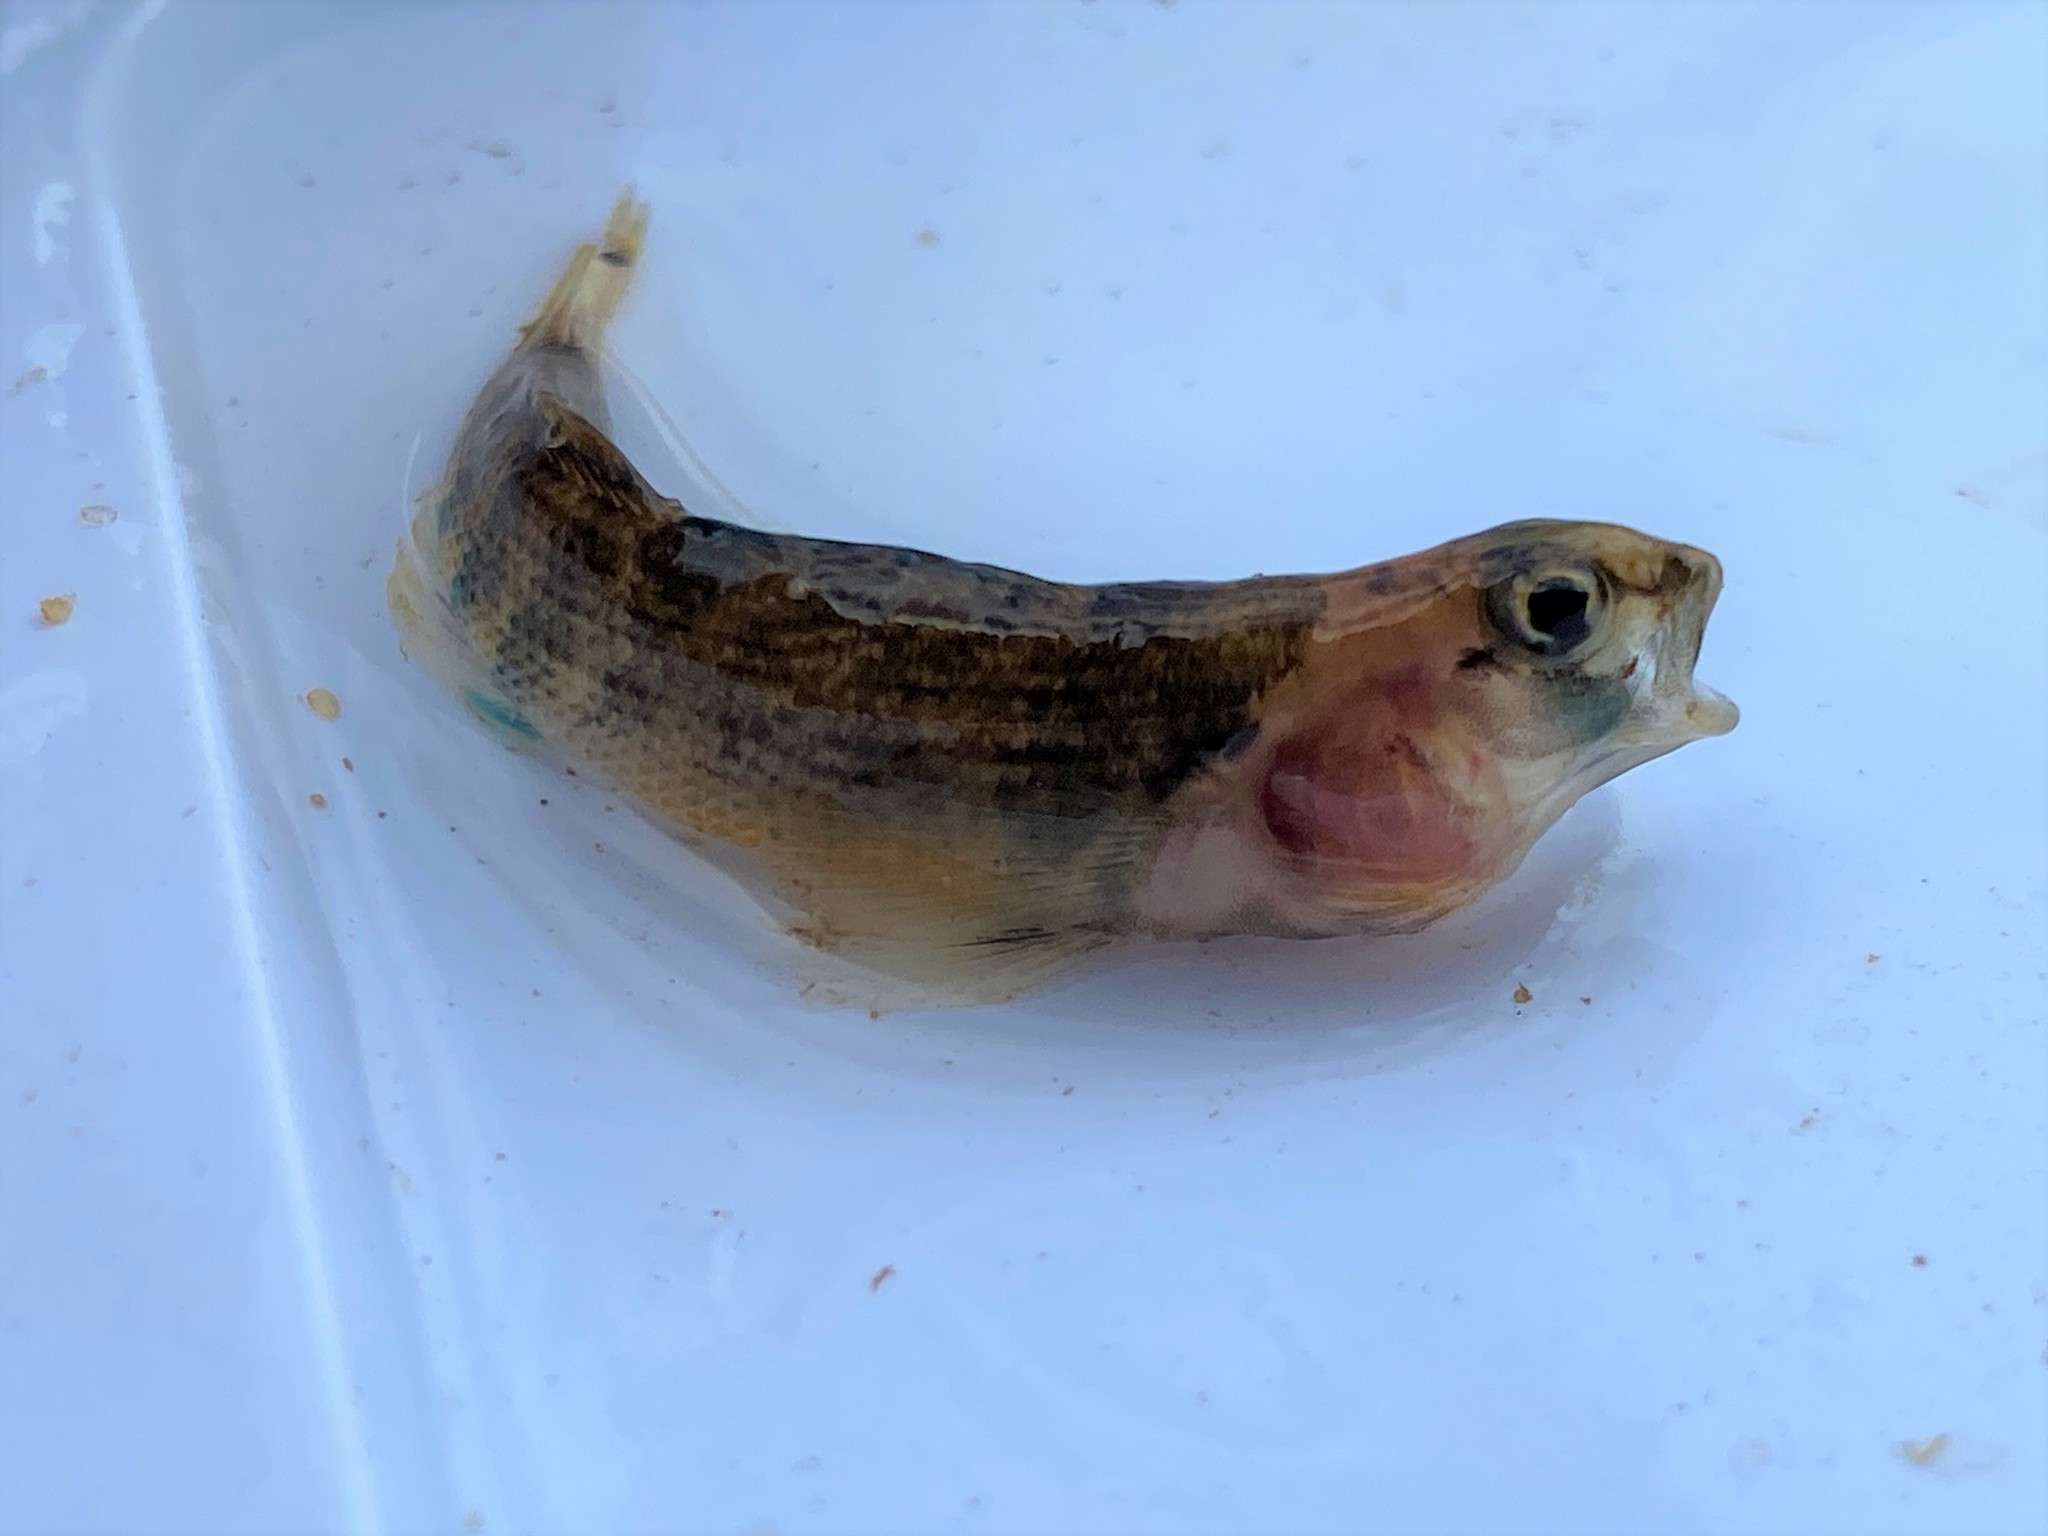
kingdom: Animalia
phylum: Chordata
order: Perciformes
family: Percidae
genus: Etheostoma
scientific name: Etheostoma spectabile
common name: Orangethroat darter
